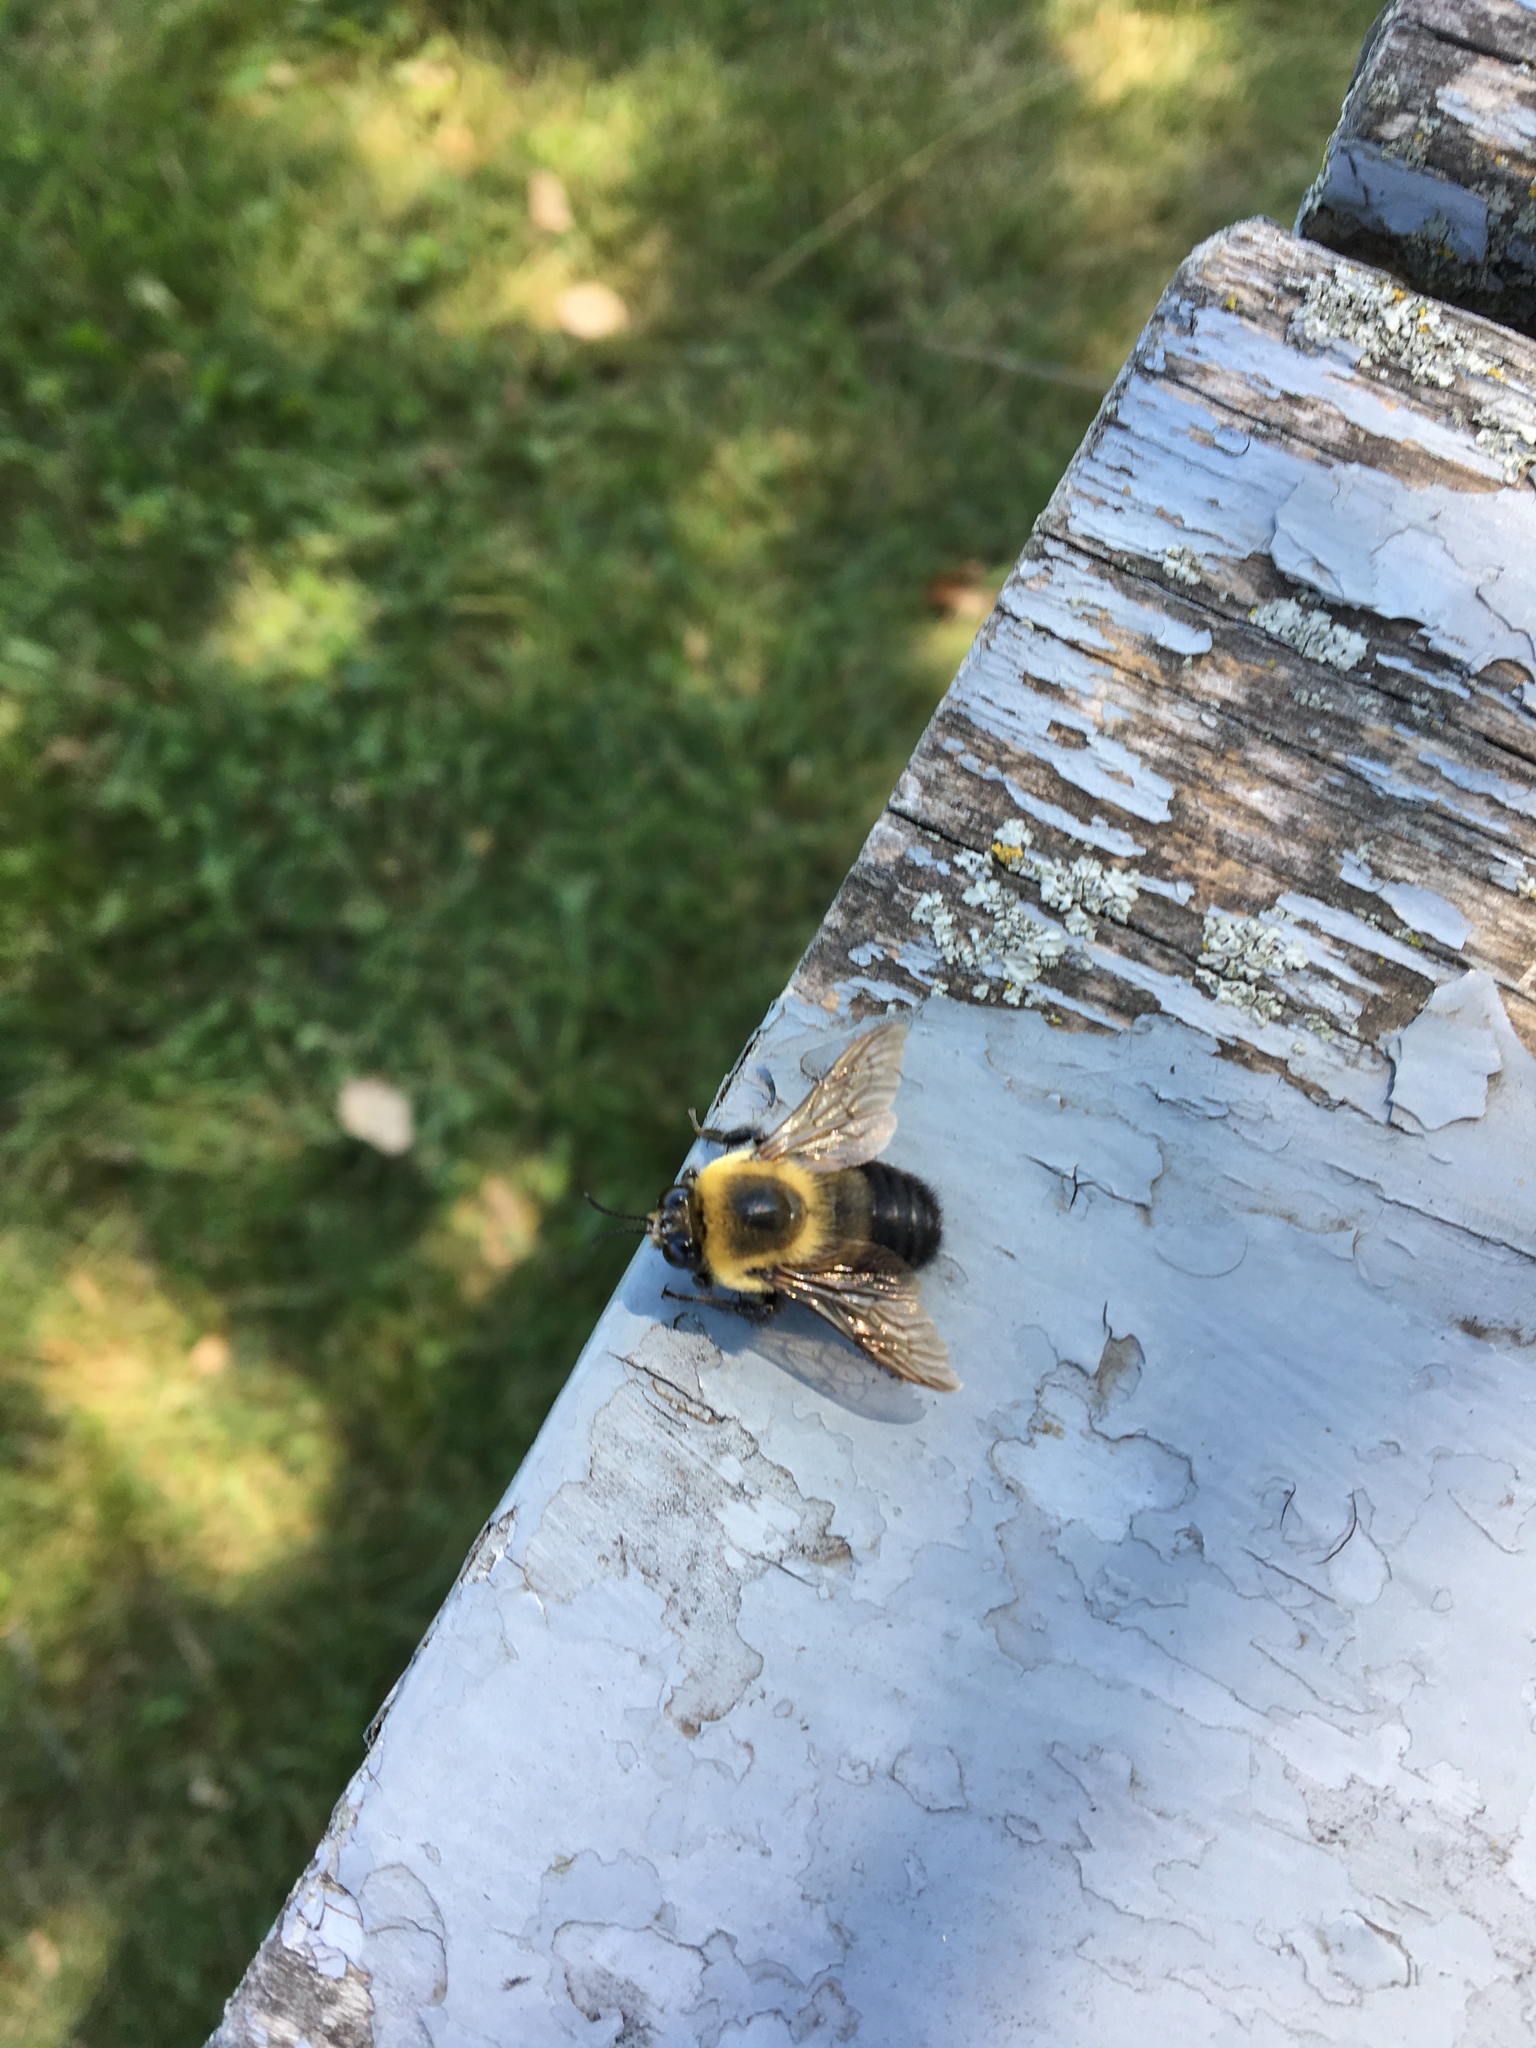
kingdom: Animalia
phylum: Arthropoda
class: Insecta
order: Hymenoptera
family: Apidae
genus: Bombus
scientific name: Bombus griseocollis
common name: Brown-belted bumble bee
